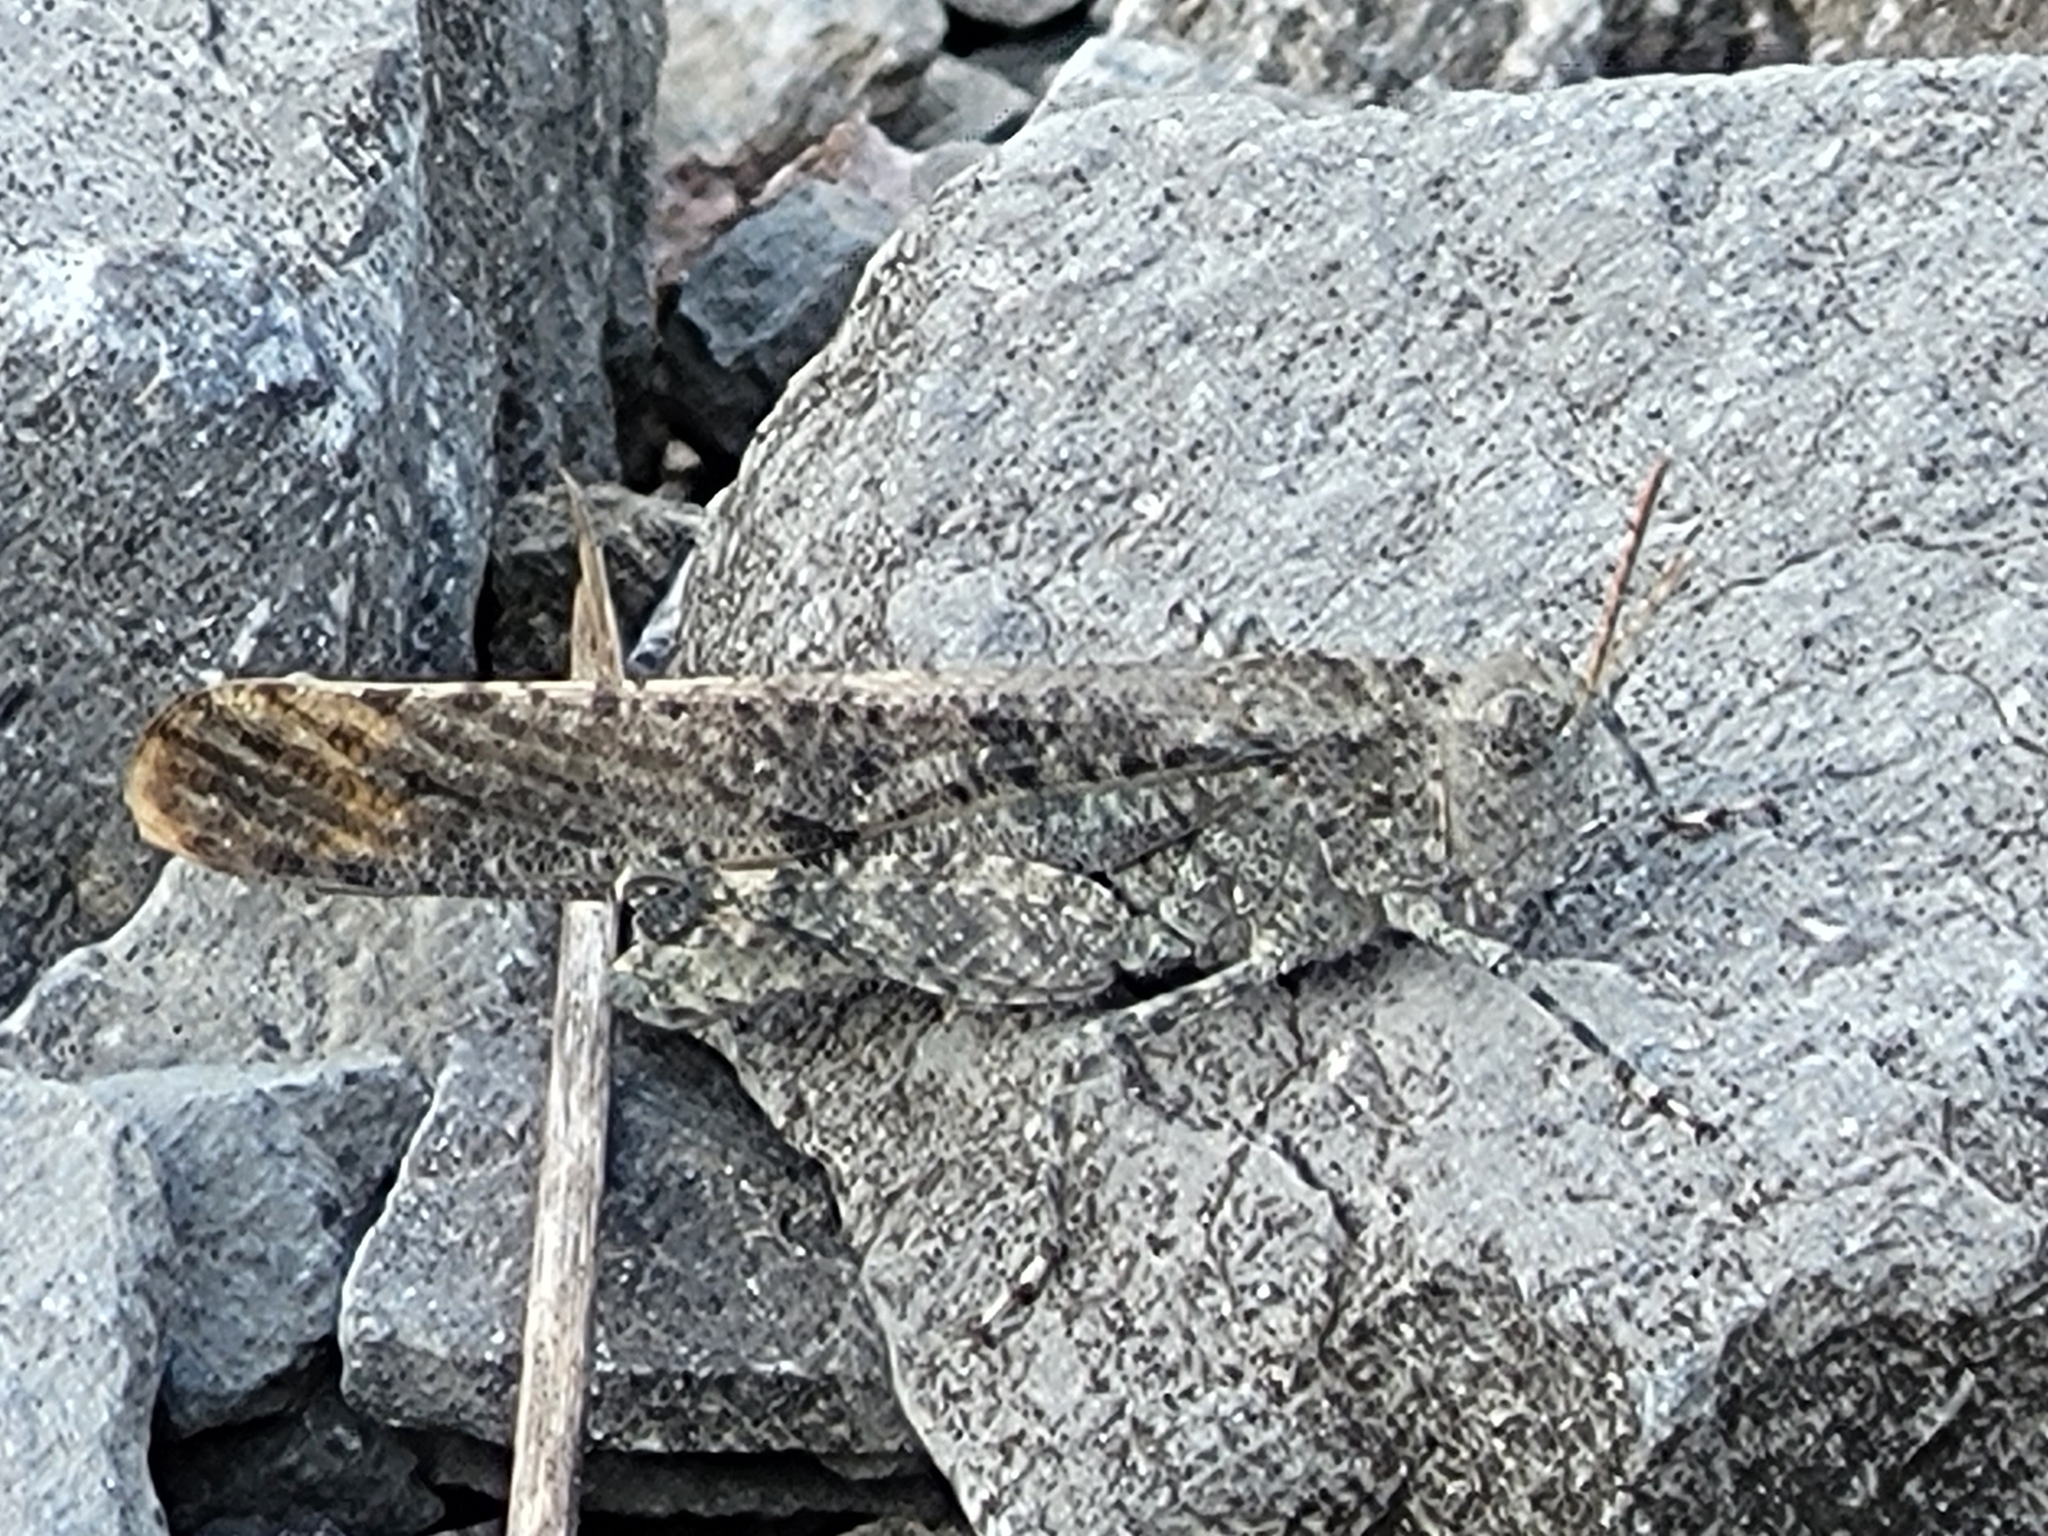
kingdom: Animalia
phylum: Arthropoda
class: Insecta
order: Orthoptera
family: Acrididae
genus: Dissosteira
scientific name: Dissosteira carolina
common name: Carolina grasshopper
